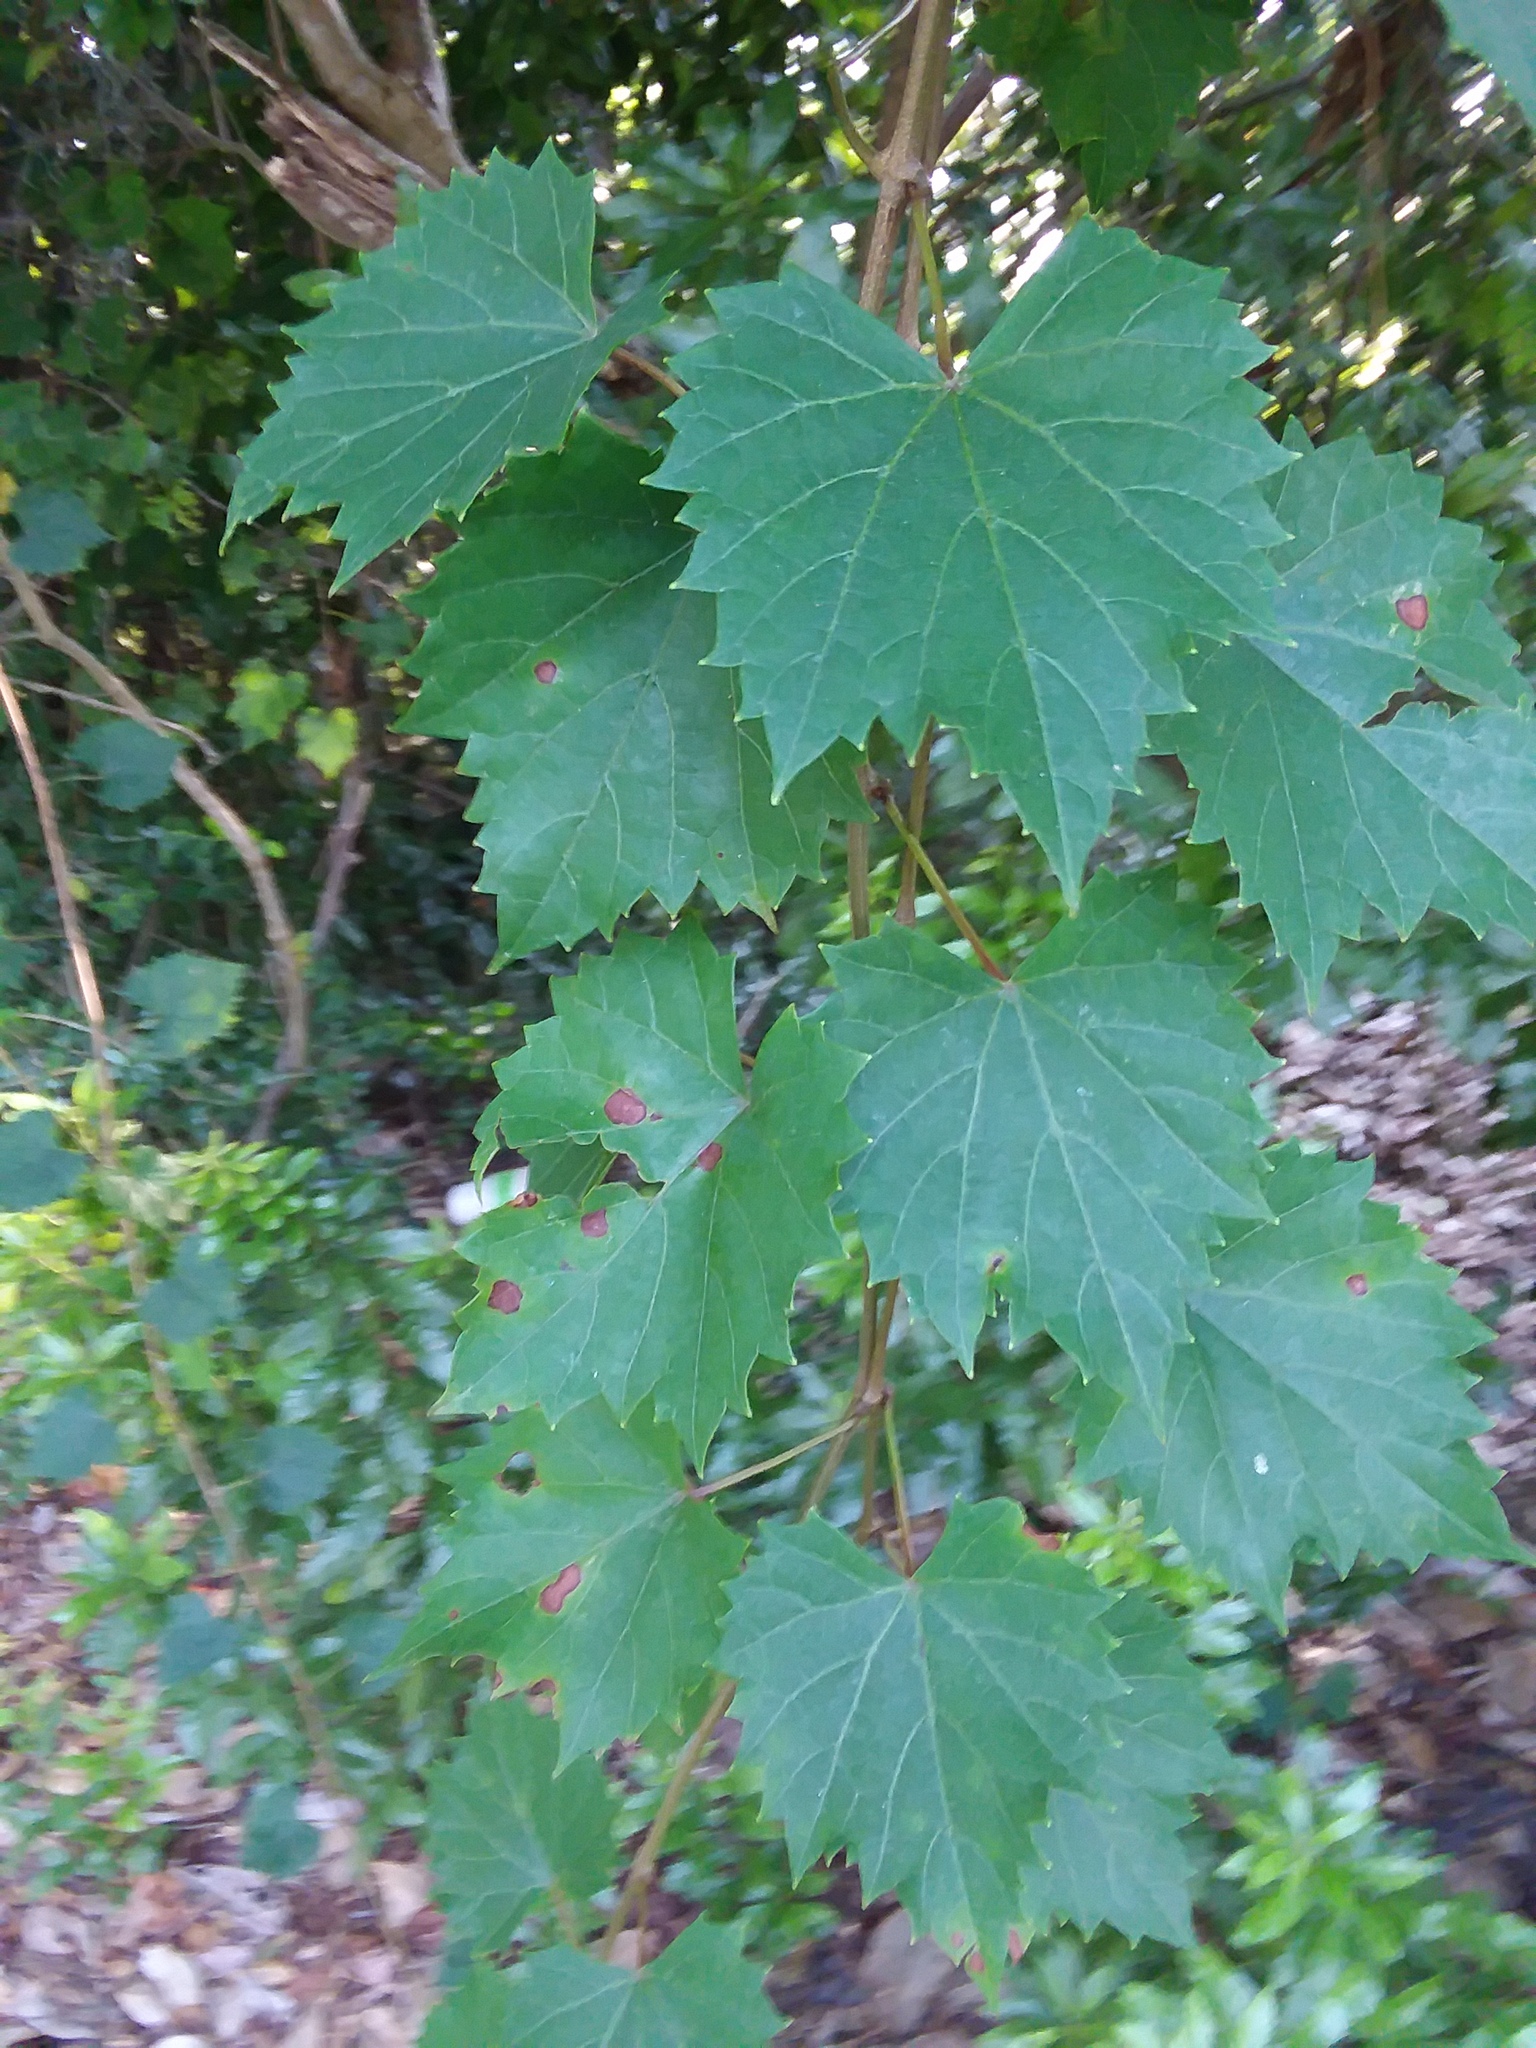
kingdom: Plantae
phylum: Tracheophyta
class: Magnoliopsida
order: Vitales
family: Vitaceae
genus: Vitis
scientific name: Vitis rotundifolia
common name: Muscadine grape
